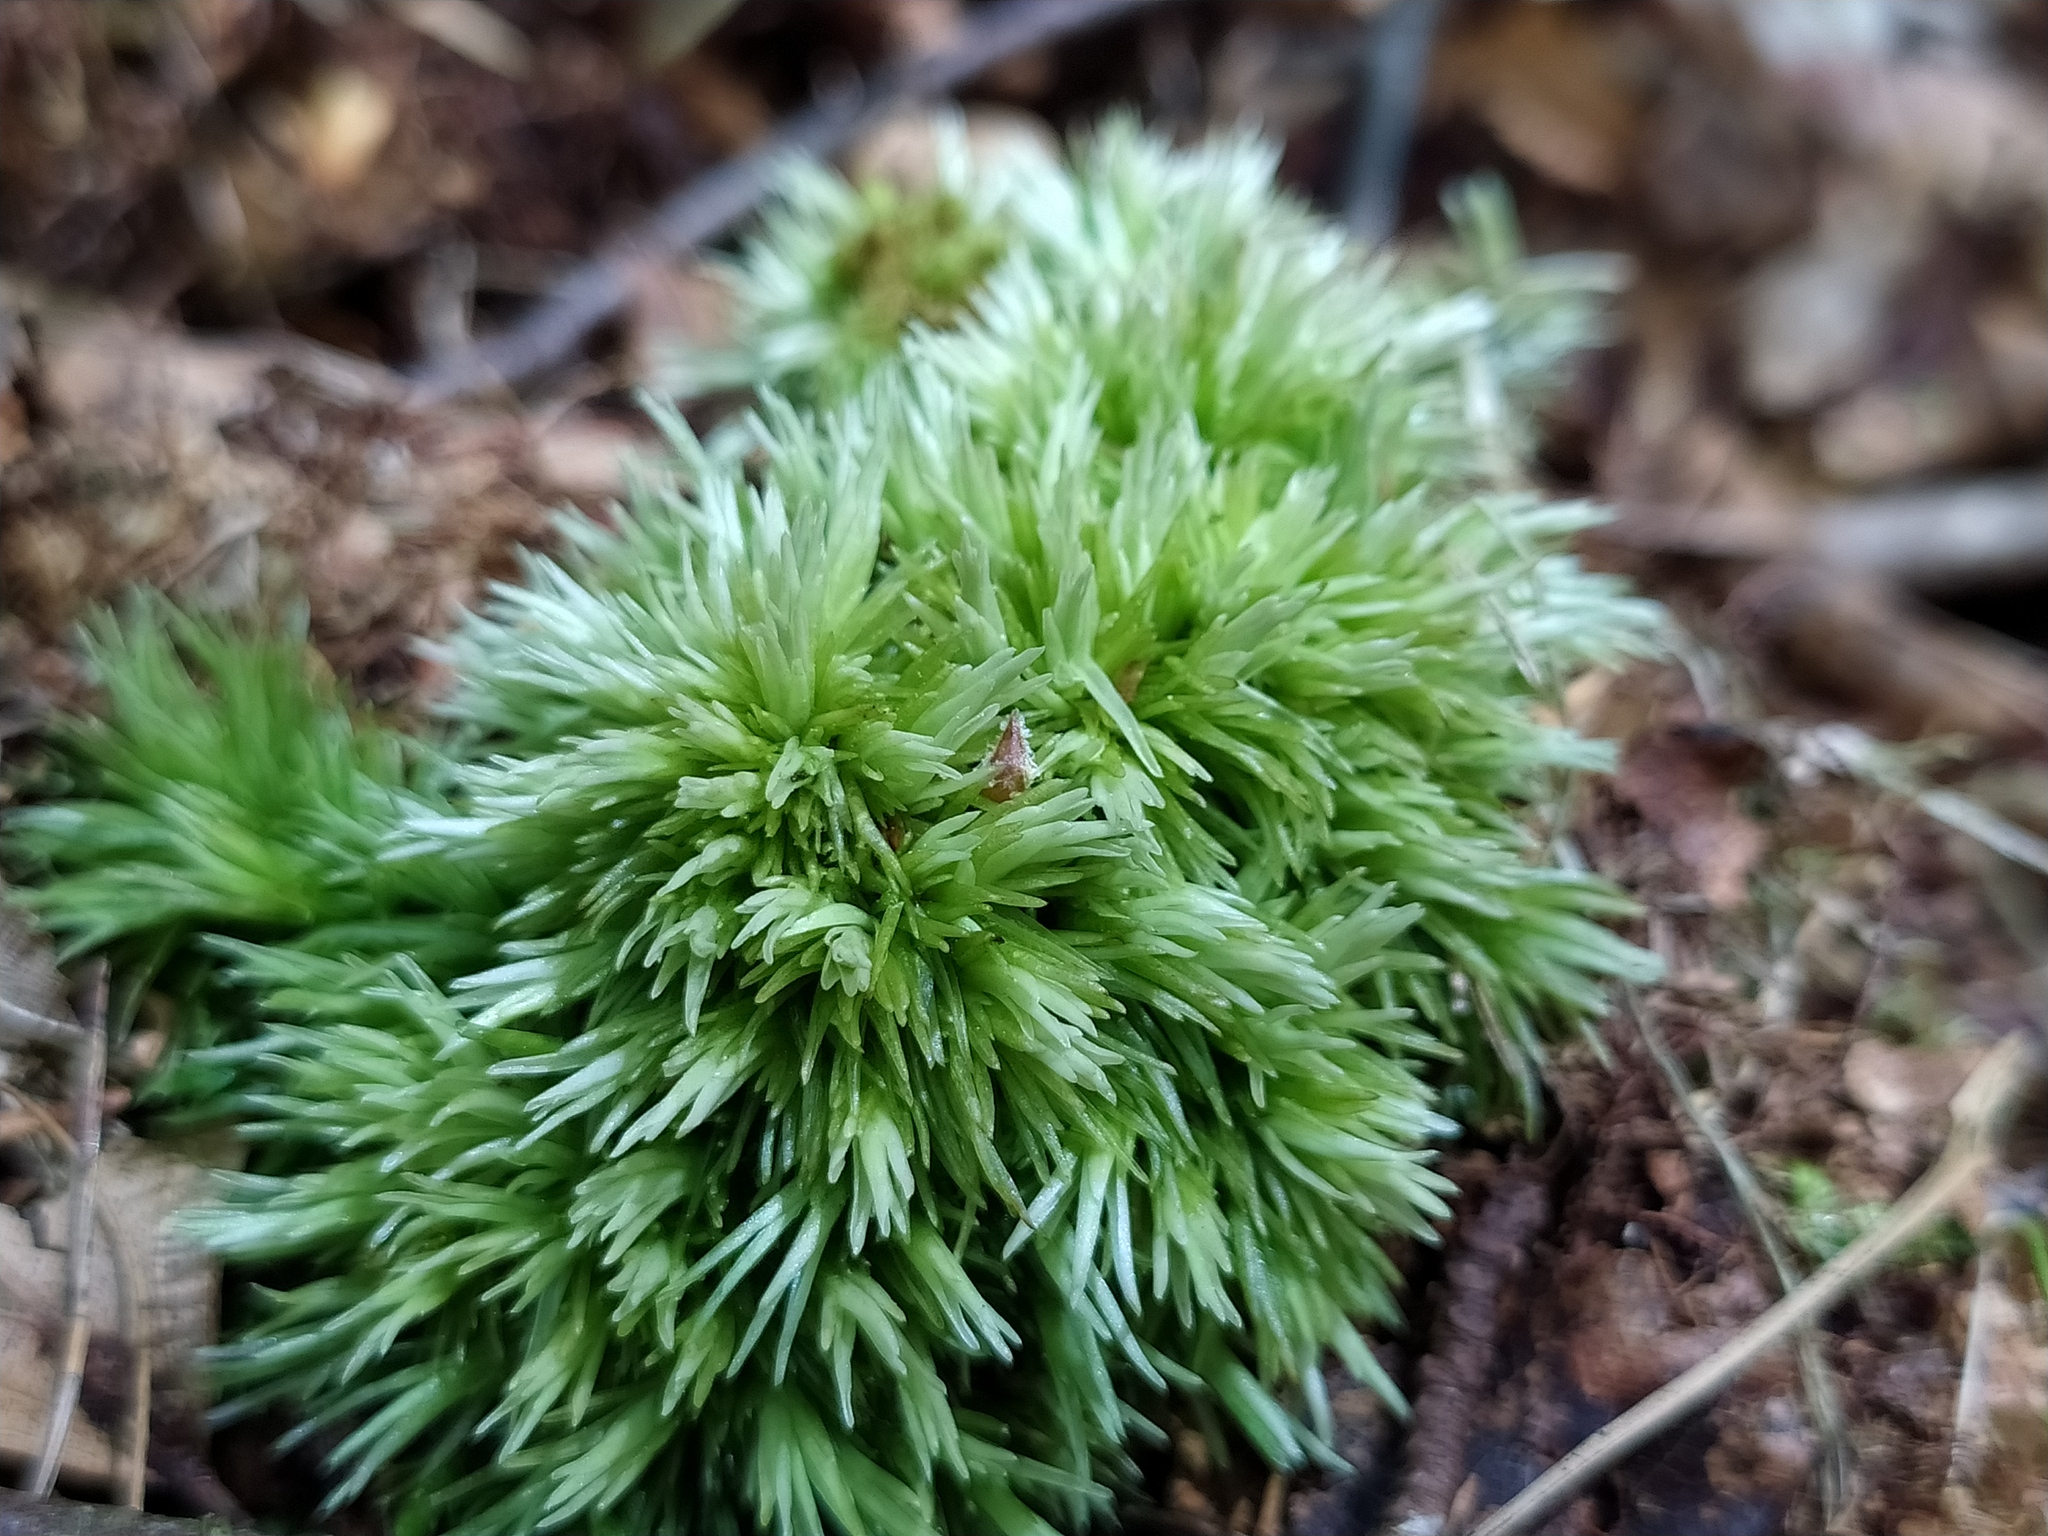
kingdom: Plantae
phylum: Bryophyta
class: Bryopsida
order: Dicranales
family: Leucobryaceae
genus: Leucobryum
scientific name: Leucobryum glaucum
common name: Large white-moss
